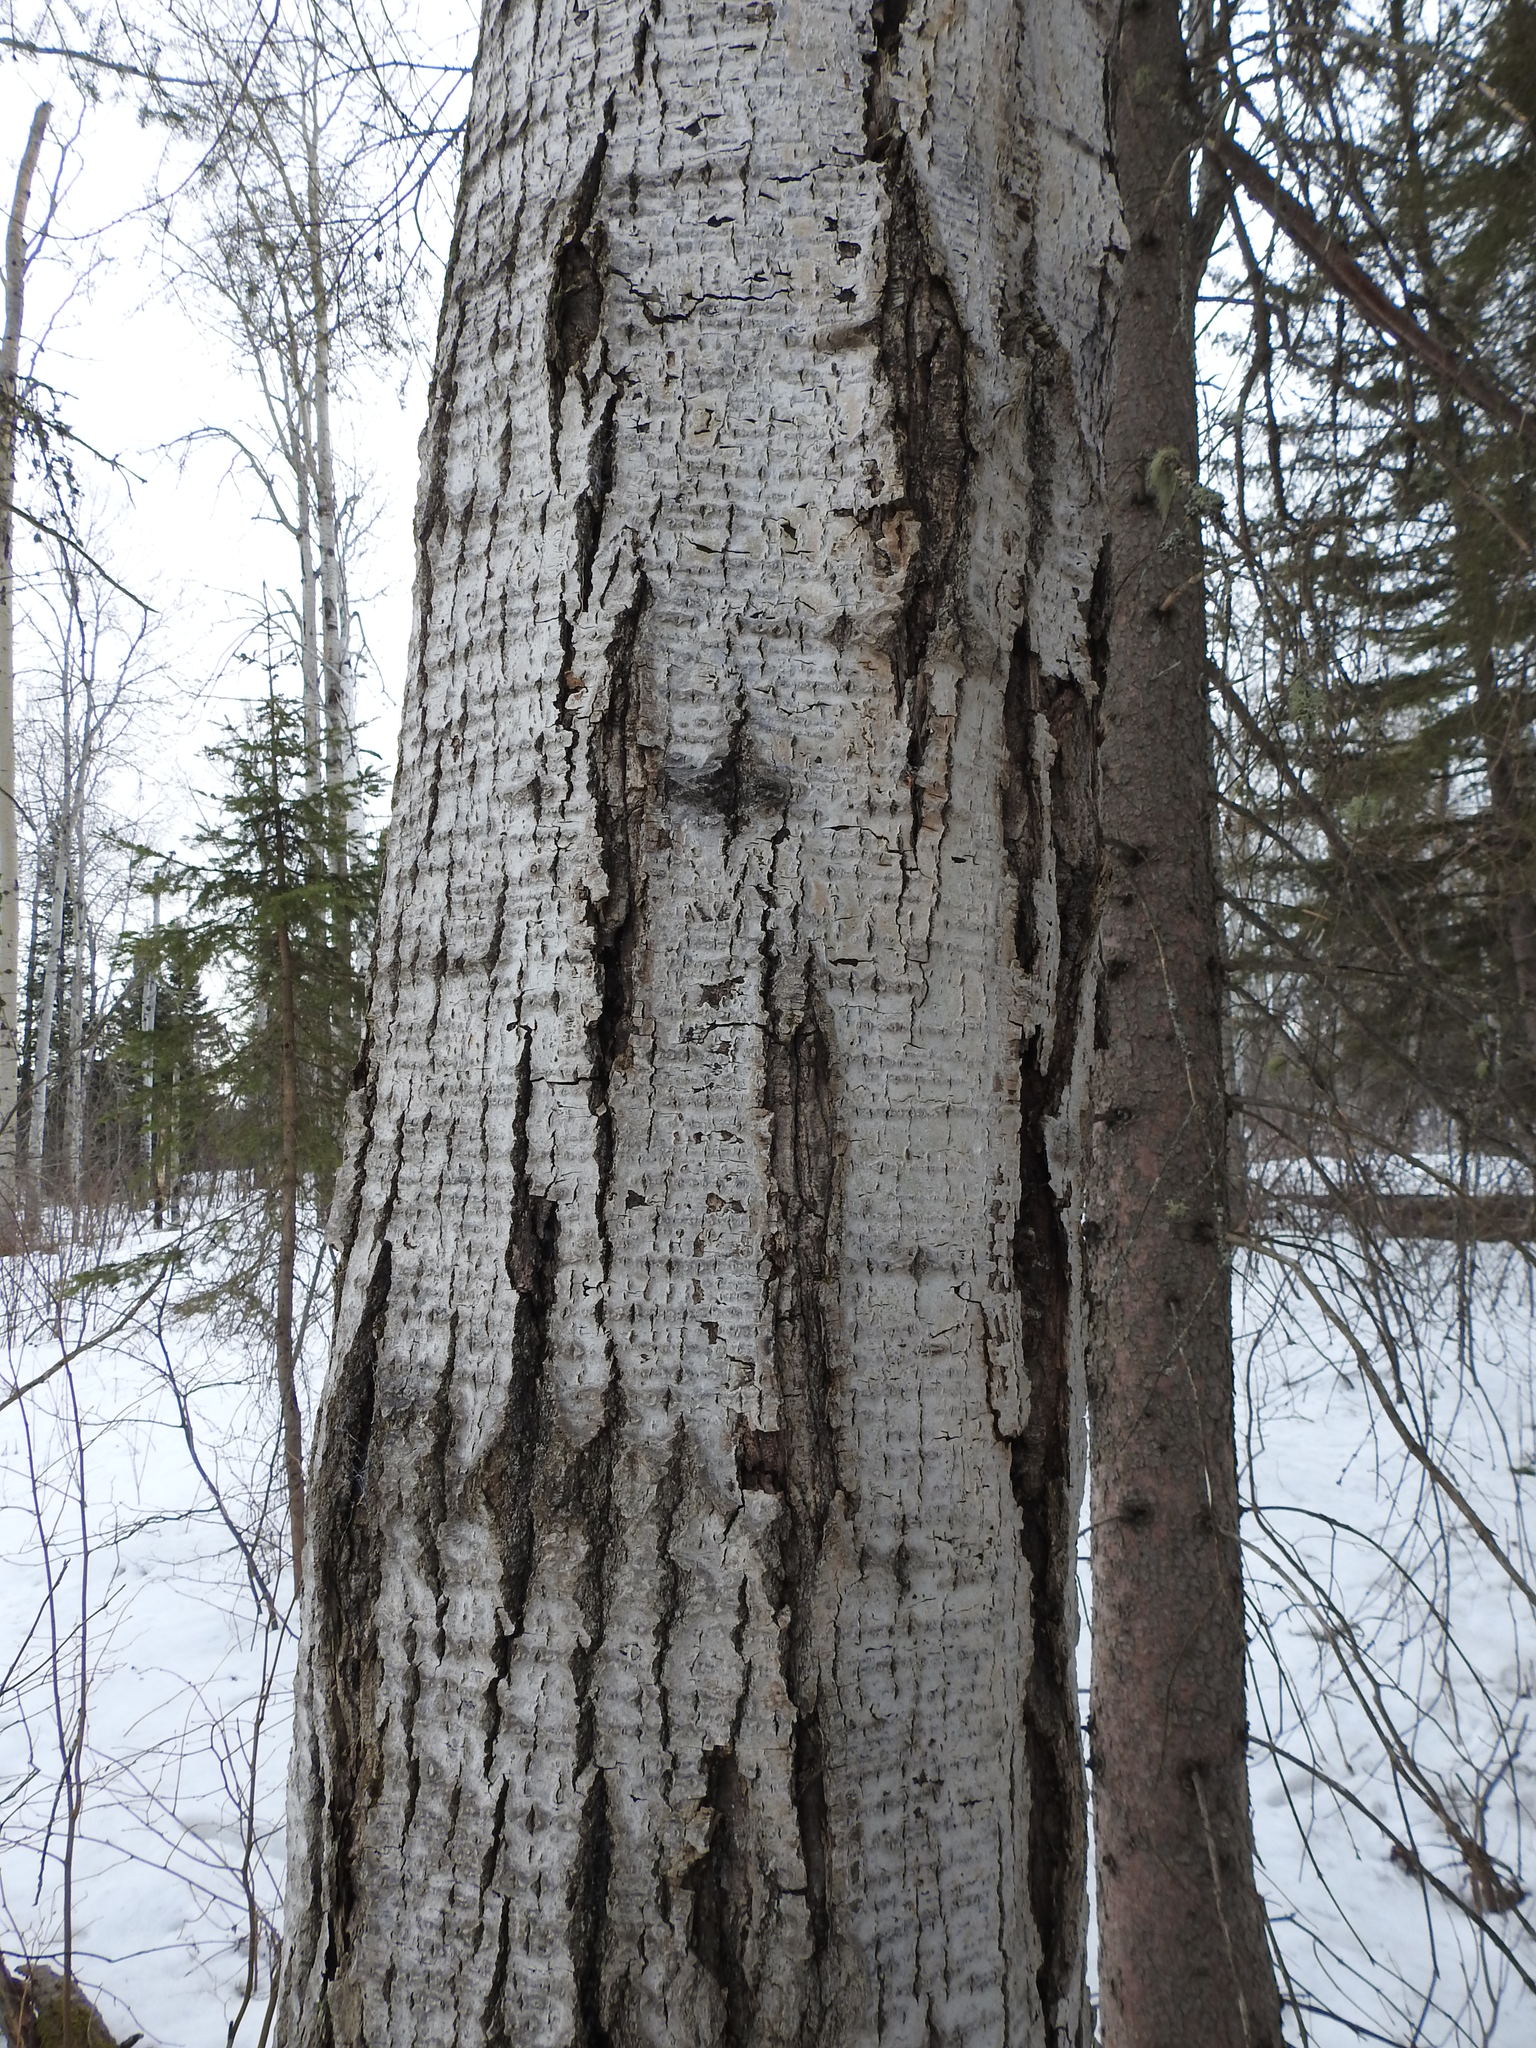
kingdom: Plantae
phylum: Tracheophyta
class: Magnoliopsida
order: Malpighiales
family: Salicaceae
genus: Populus
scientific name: Populus tremuloides
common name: Quaking aspen
